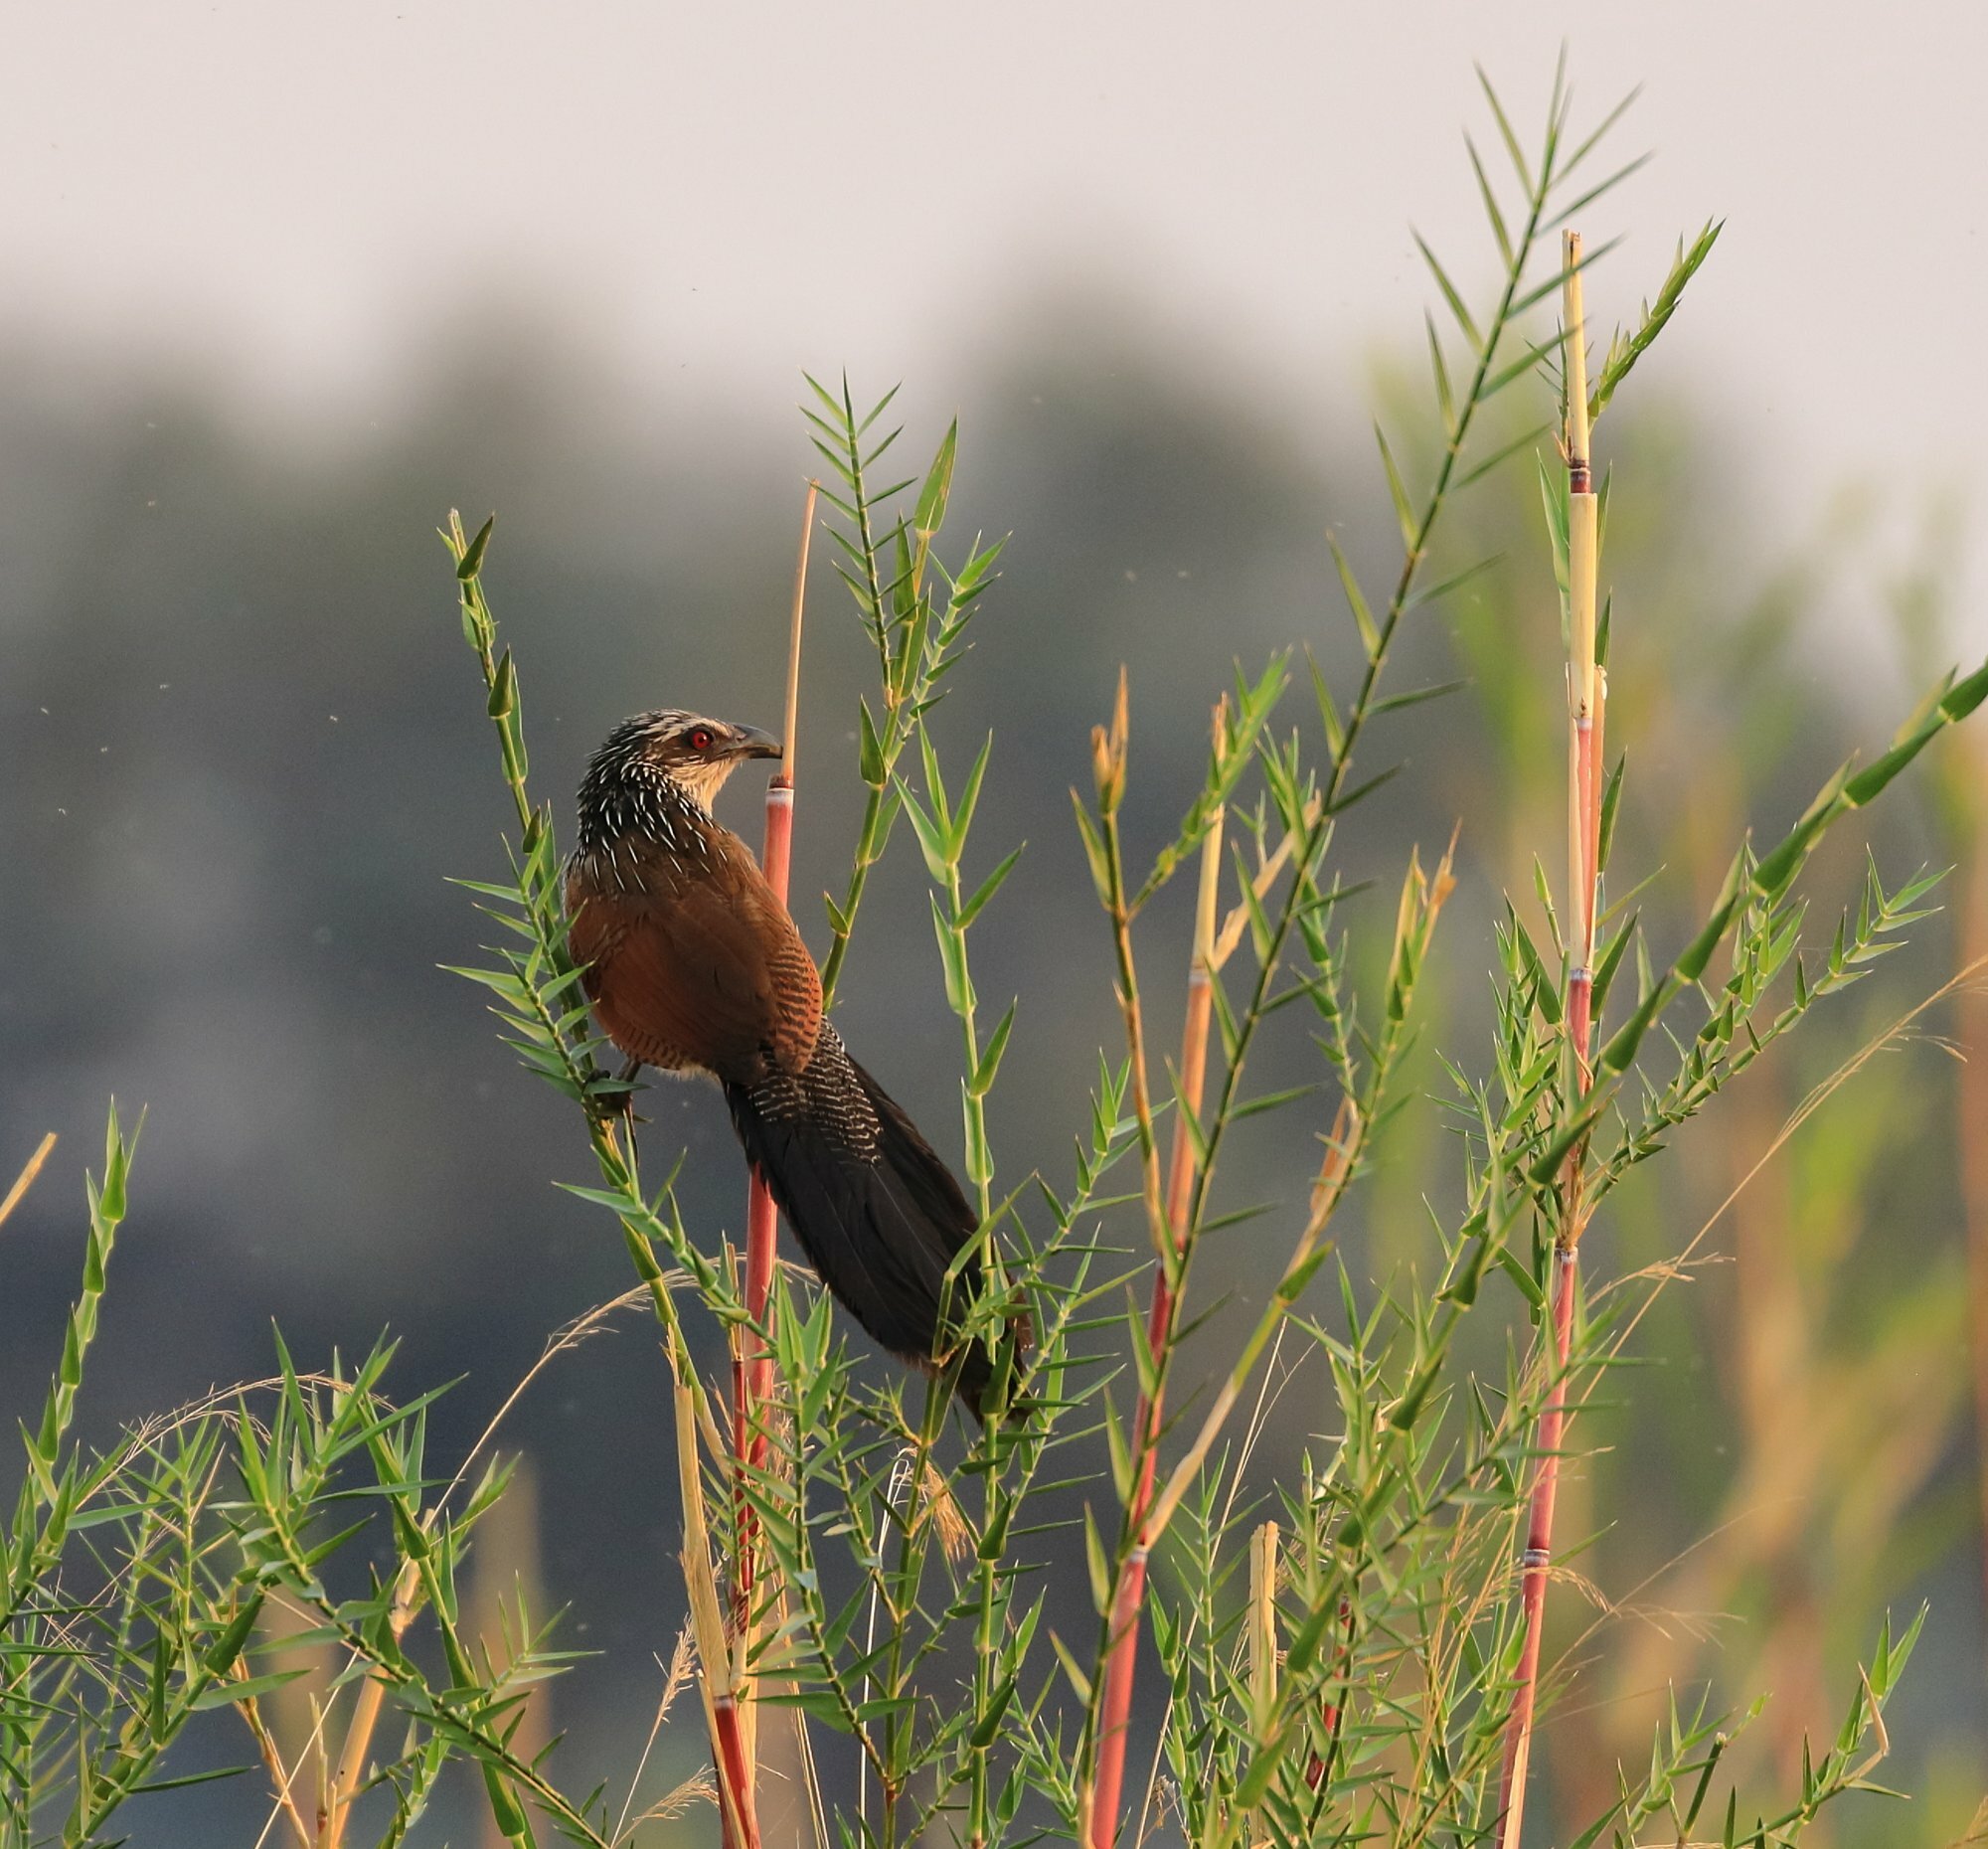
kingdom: Animalia
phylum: Chordata
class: Aves
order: Cuculiformes
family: Cuculidae
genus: Centropus
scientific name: Centropus superciliosus
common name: White-browed coucal
